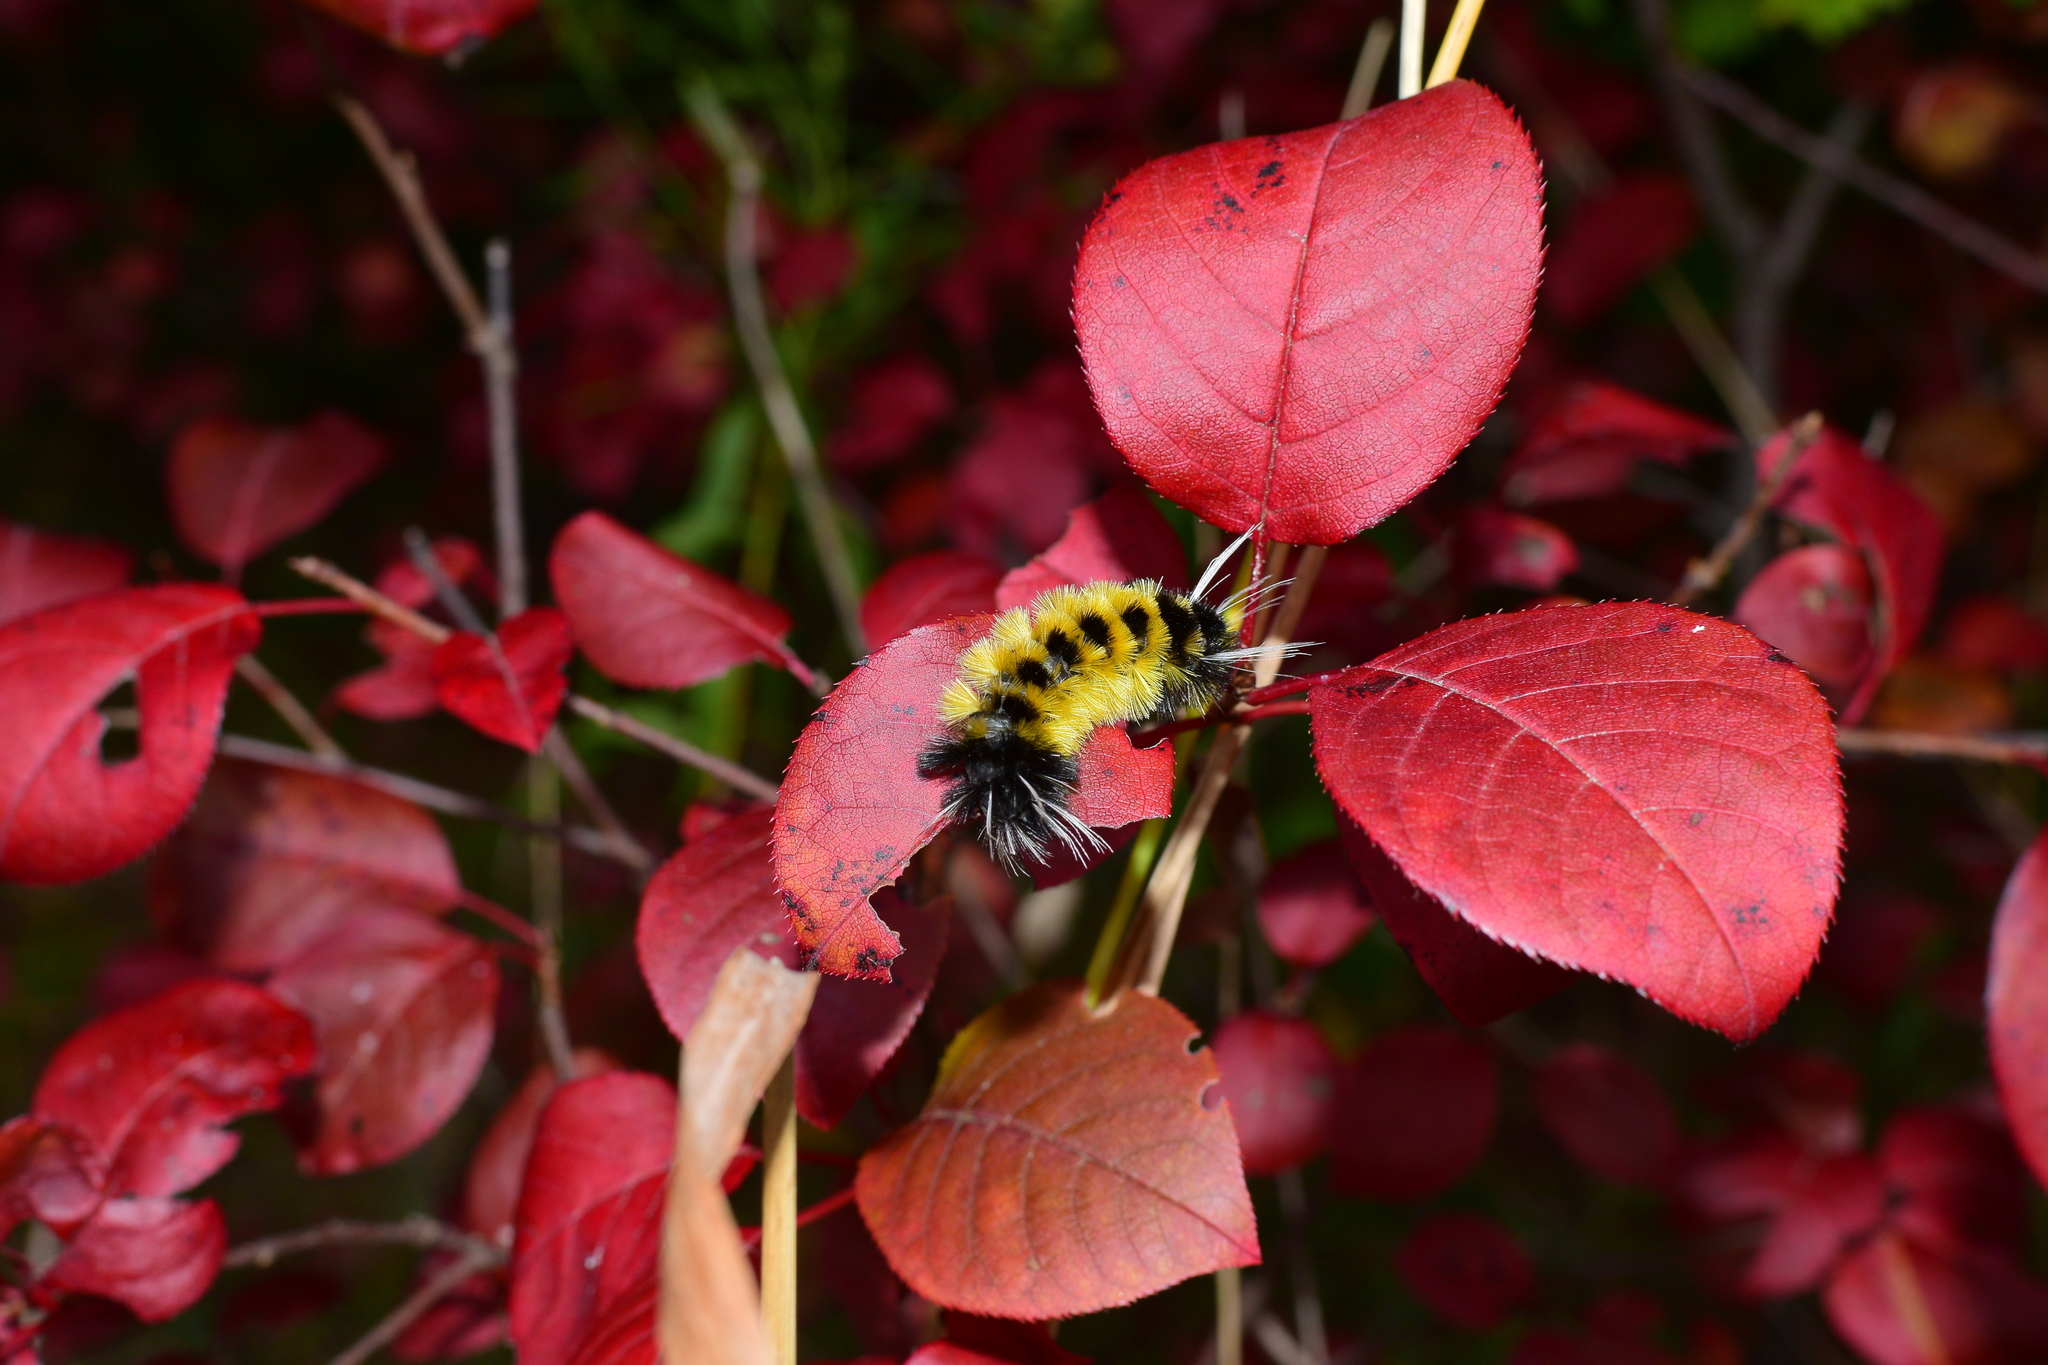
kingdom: Animalia
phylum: Arthropoda
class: Insecta
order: Lepidoptera
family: Erebidae
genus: Lophocampa
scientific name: Lophocampa maculata
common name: Spotted tussock moth
